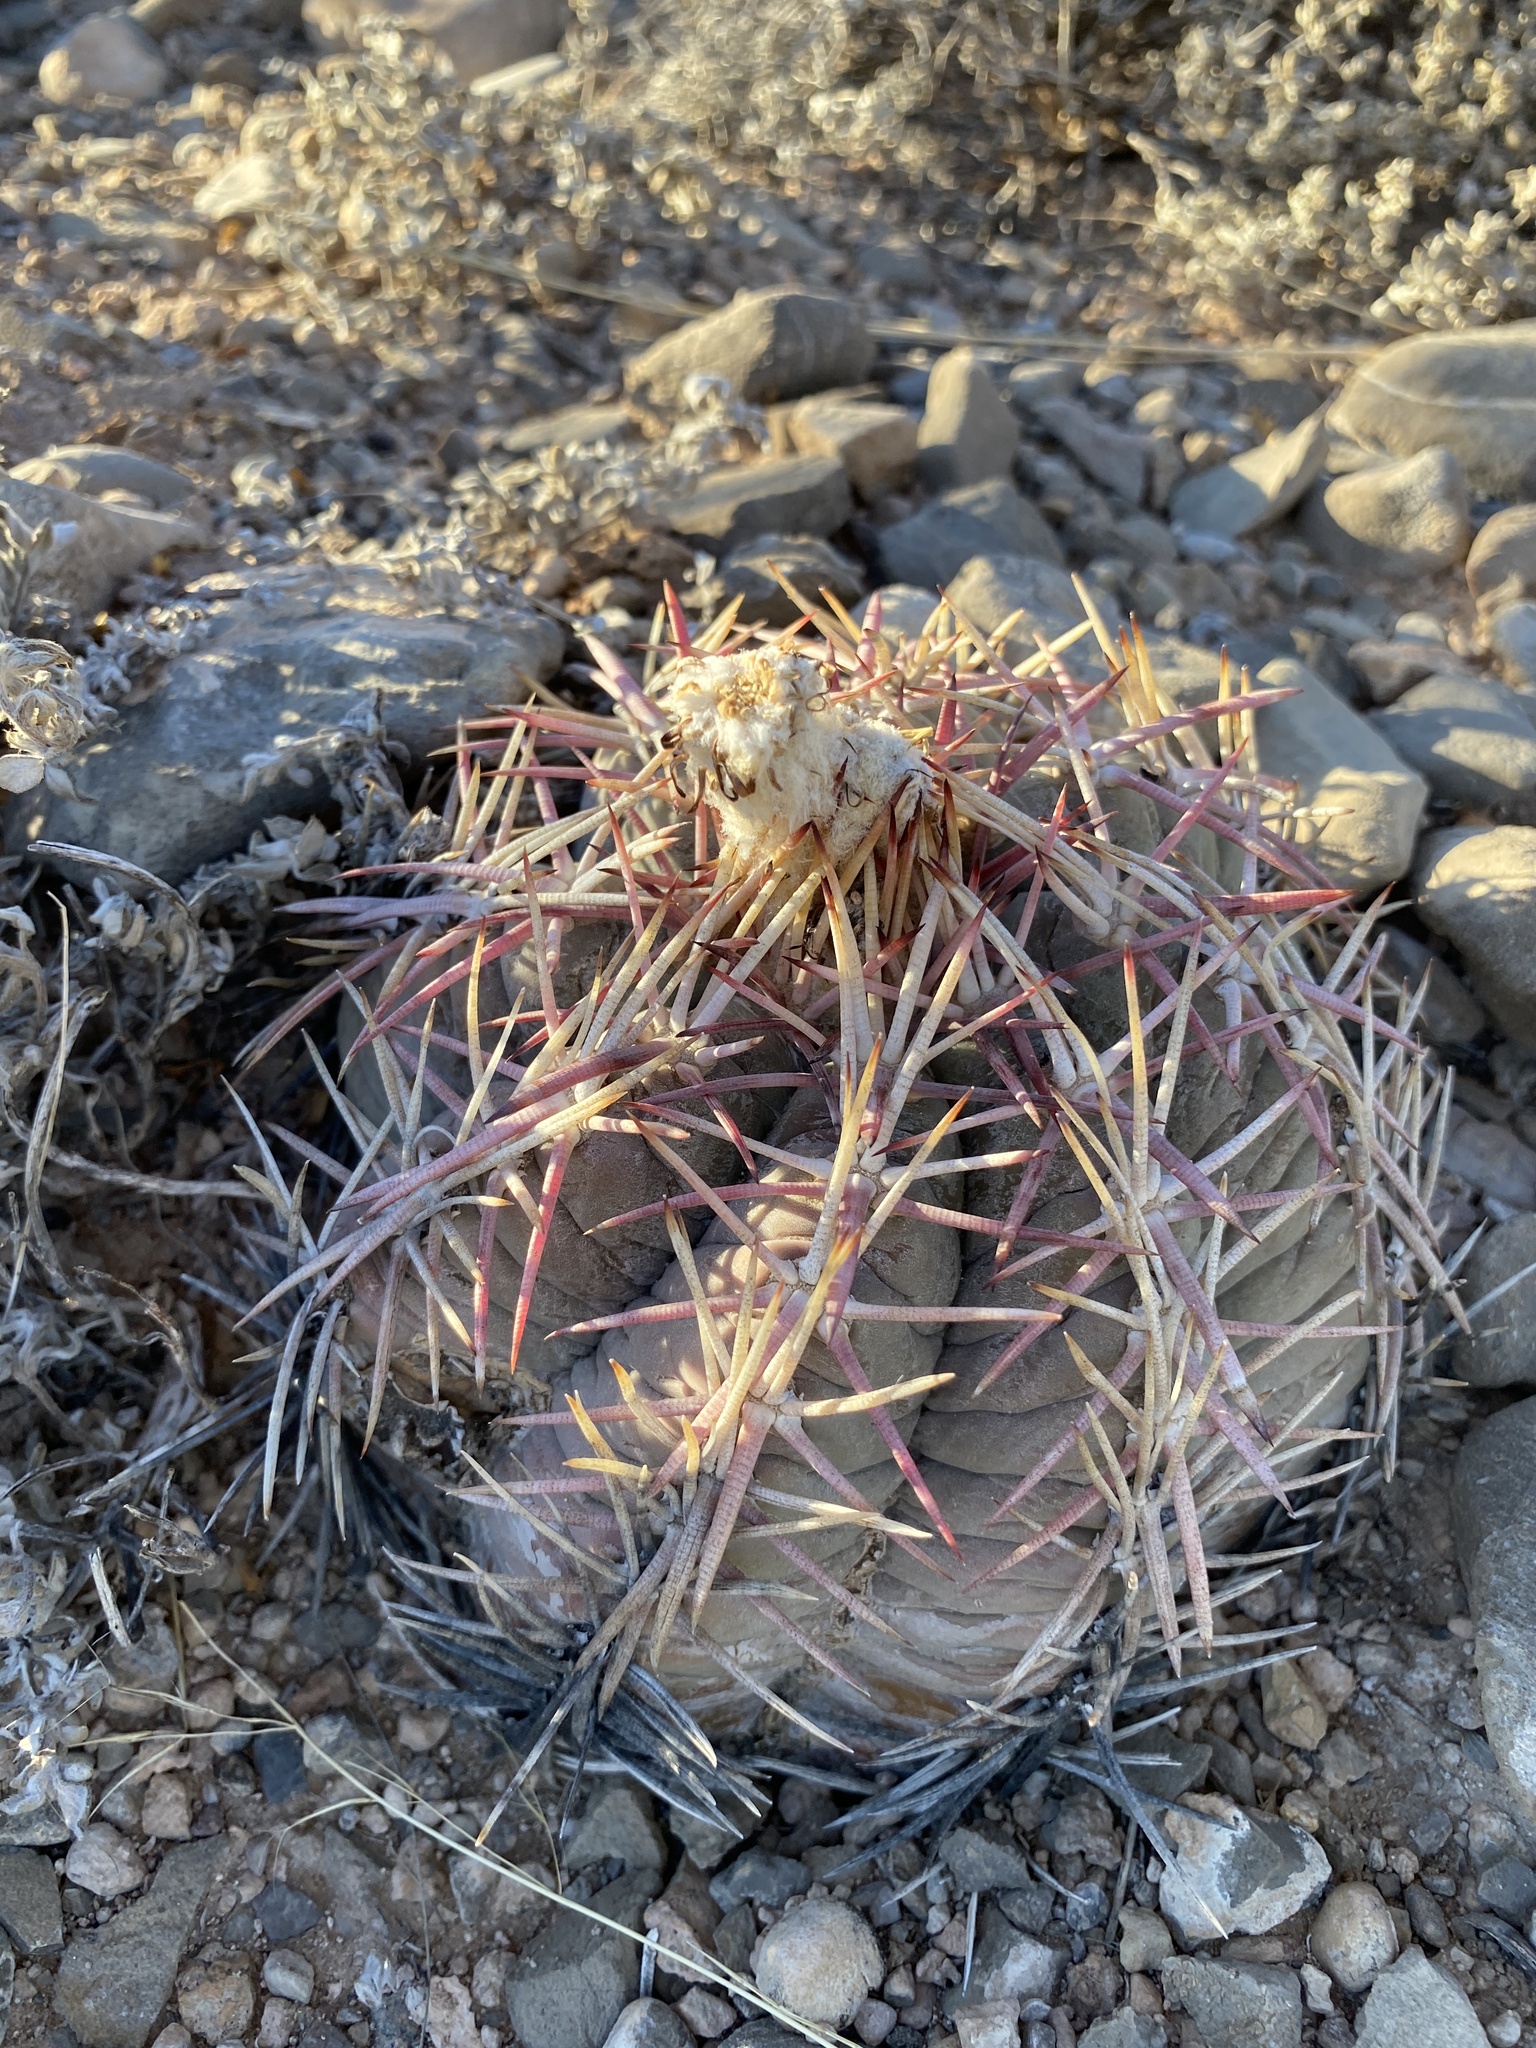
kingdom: Plantae
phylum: Tracheophyta
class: Magnoliopsida
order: Caryophyllales
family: Cactaceae
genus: Echinocactus
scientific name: Echinocactus horizonthalonius
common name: Devilshead
